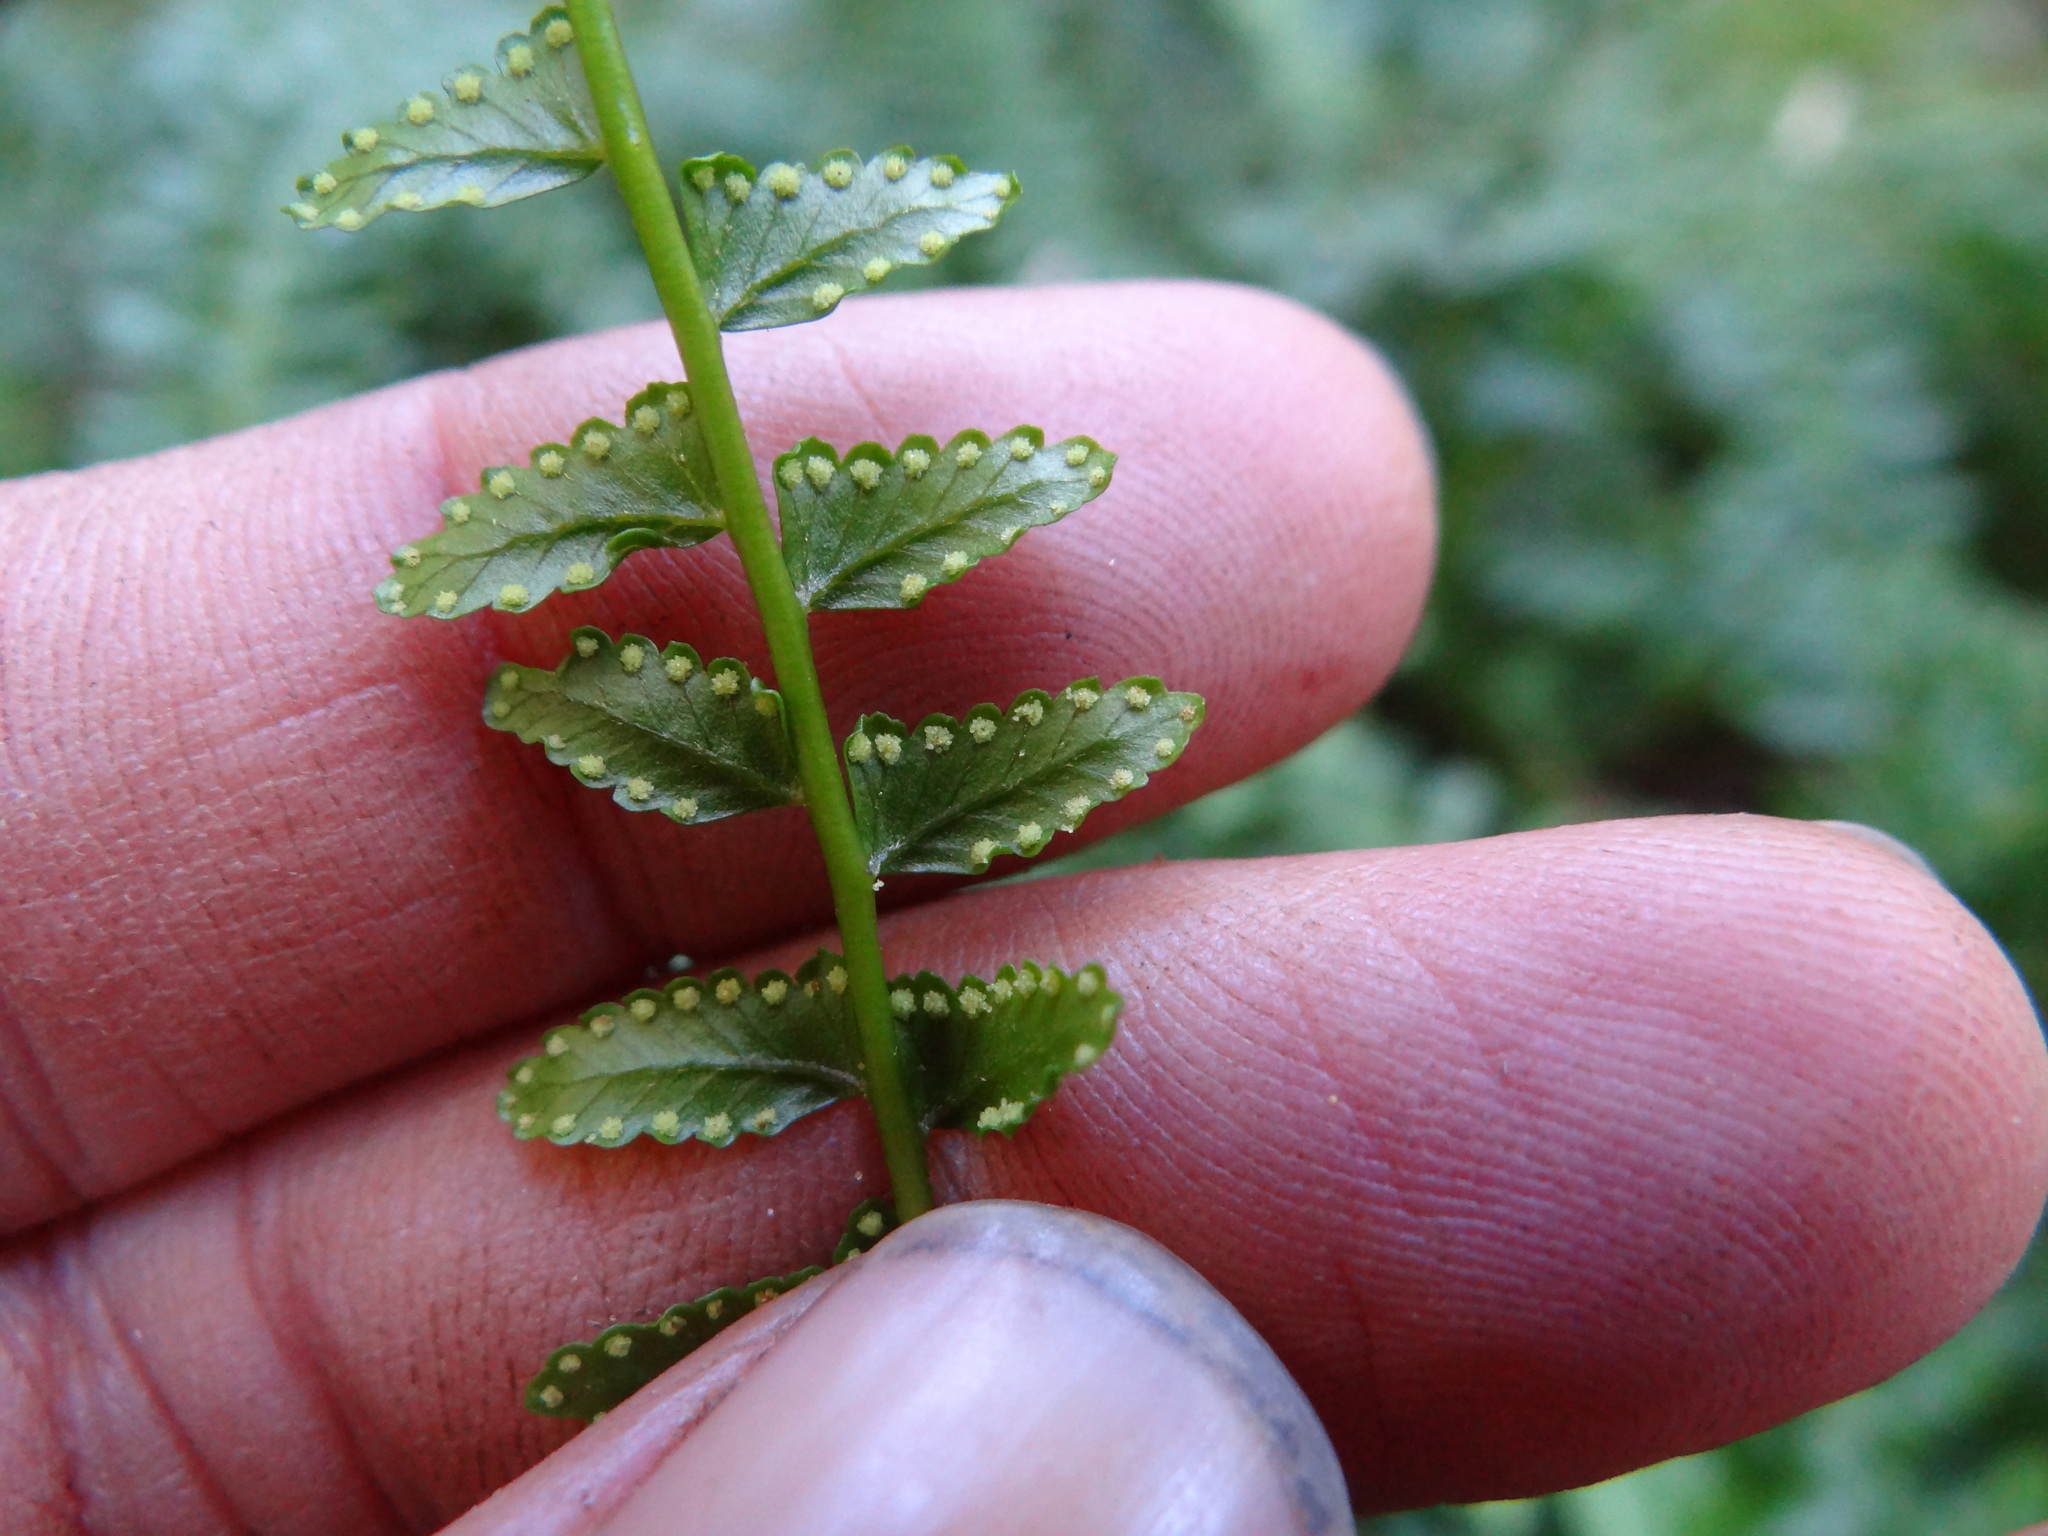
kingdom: Plantae
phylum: Tracheophyta
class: Polypodiopsida
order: Polypodiales
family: Dennstaedtiaceae
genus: Monachosorum
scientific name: Monachosorum maximowiczii
